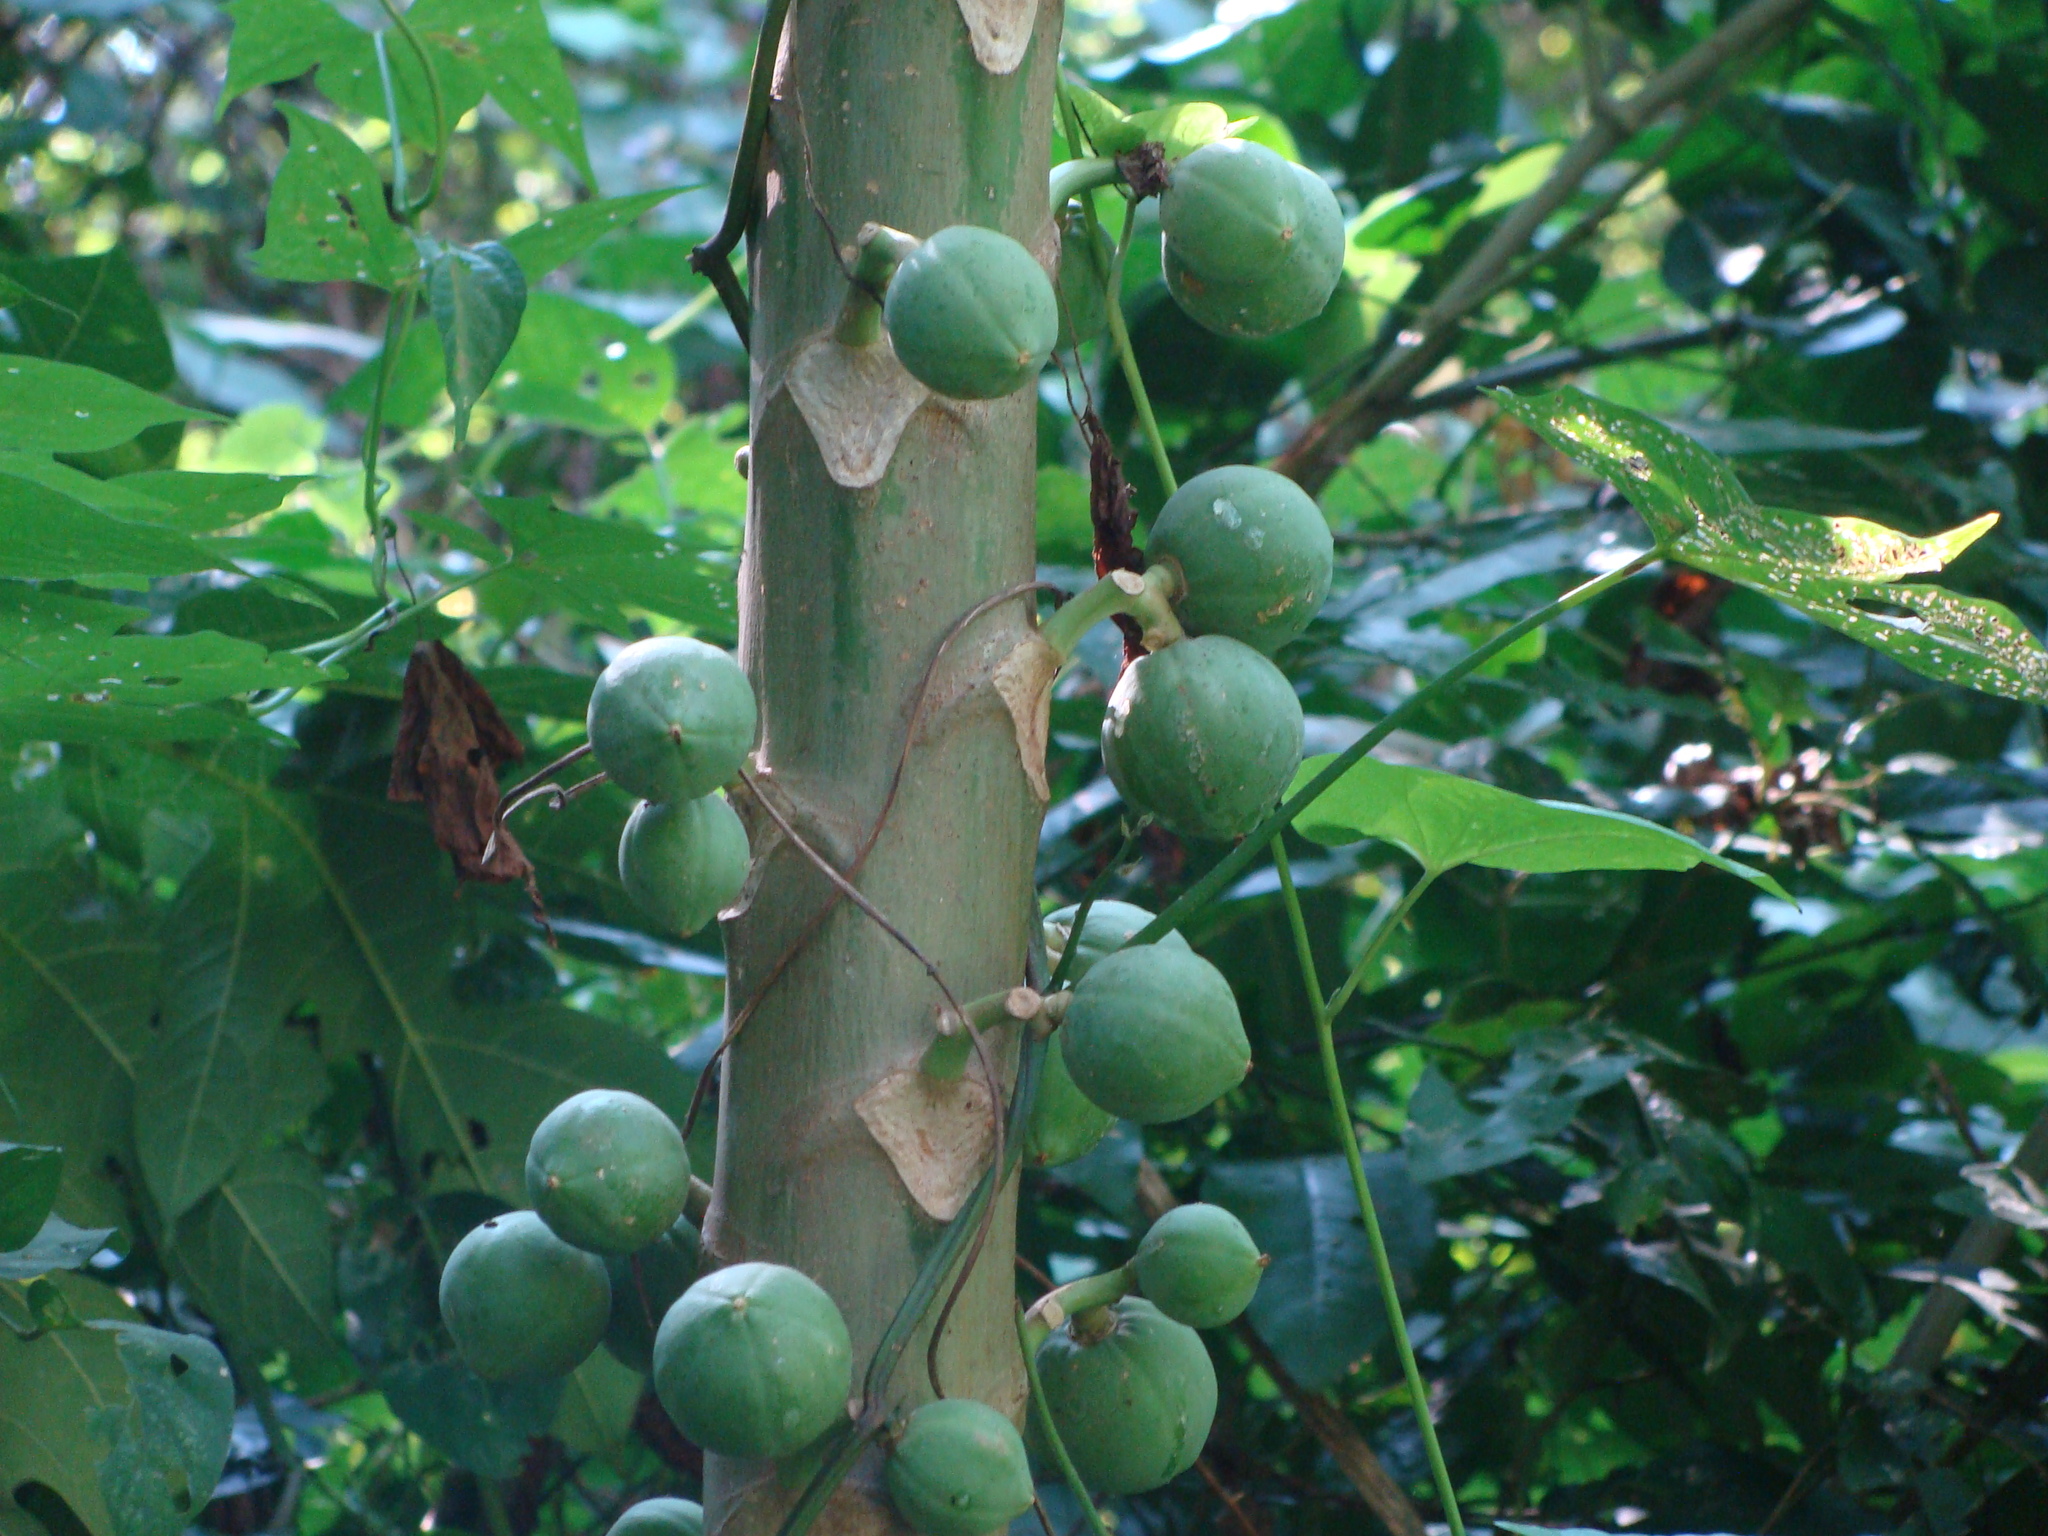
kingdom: Plantae
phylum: Tracheophyta
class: Magnoliopsida
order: Brassicales
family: Caricaceae
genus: Vasconcellea
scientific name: Vasconcellea cauliflora
